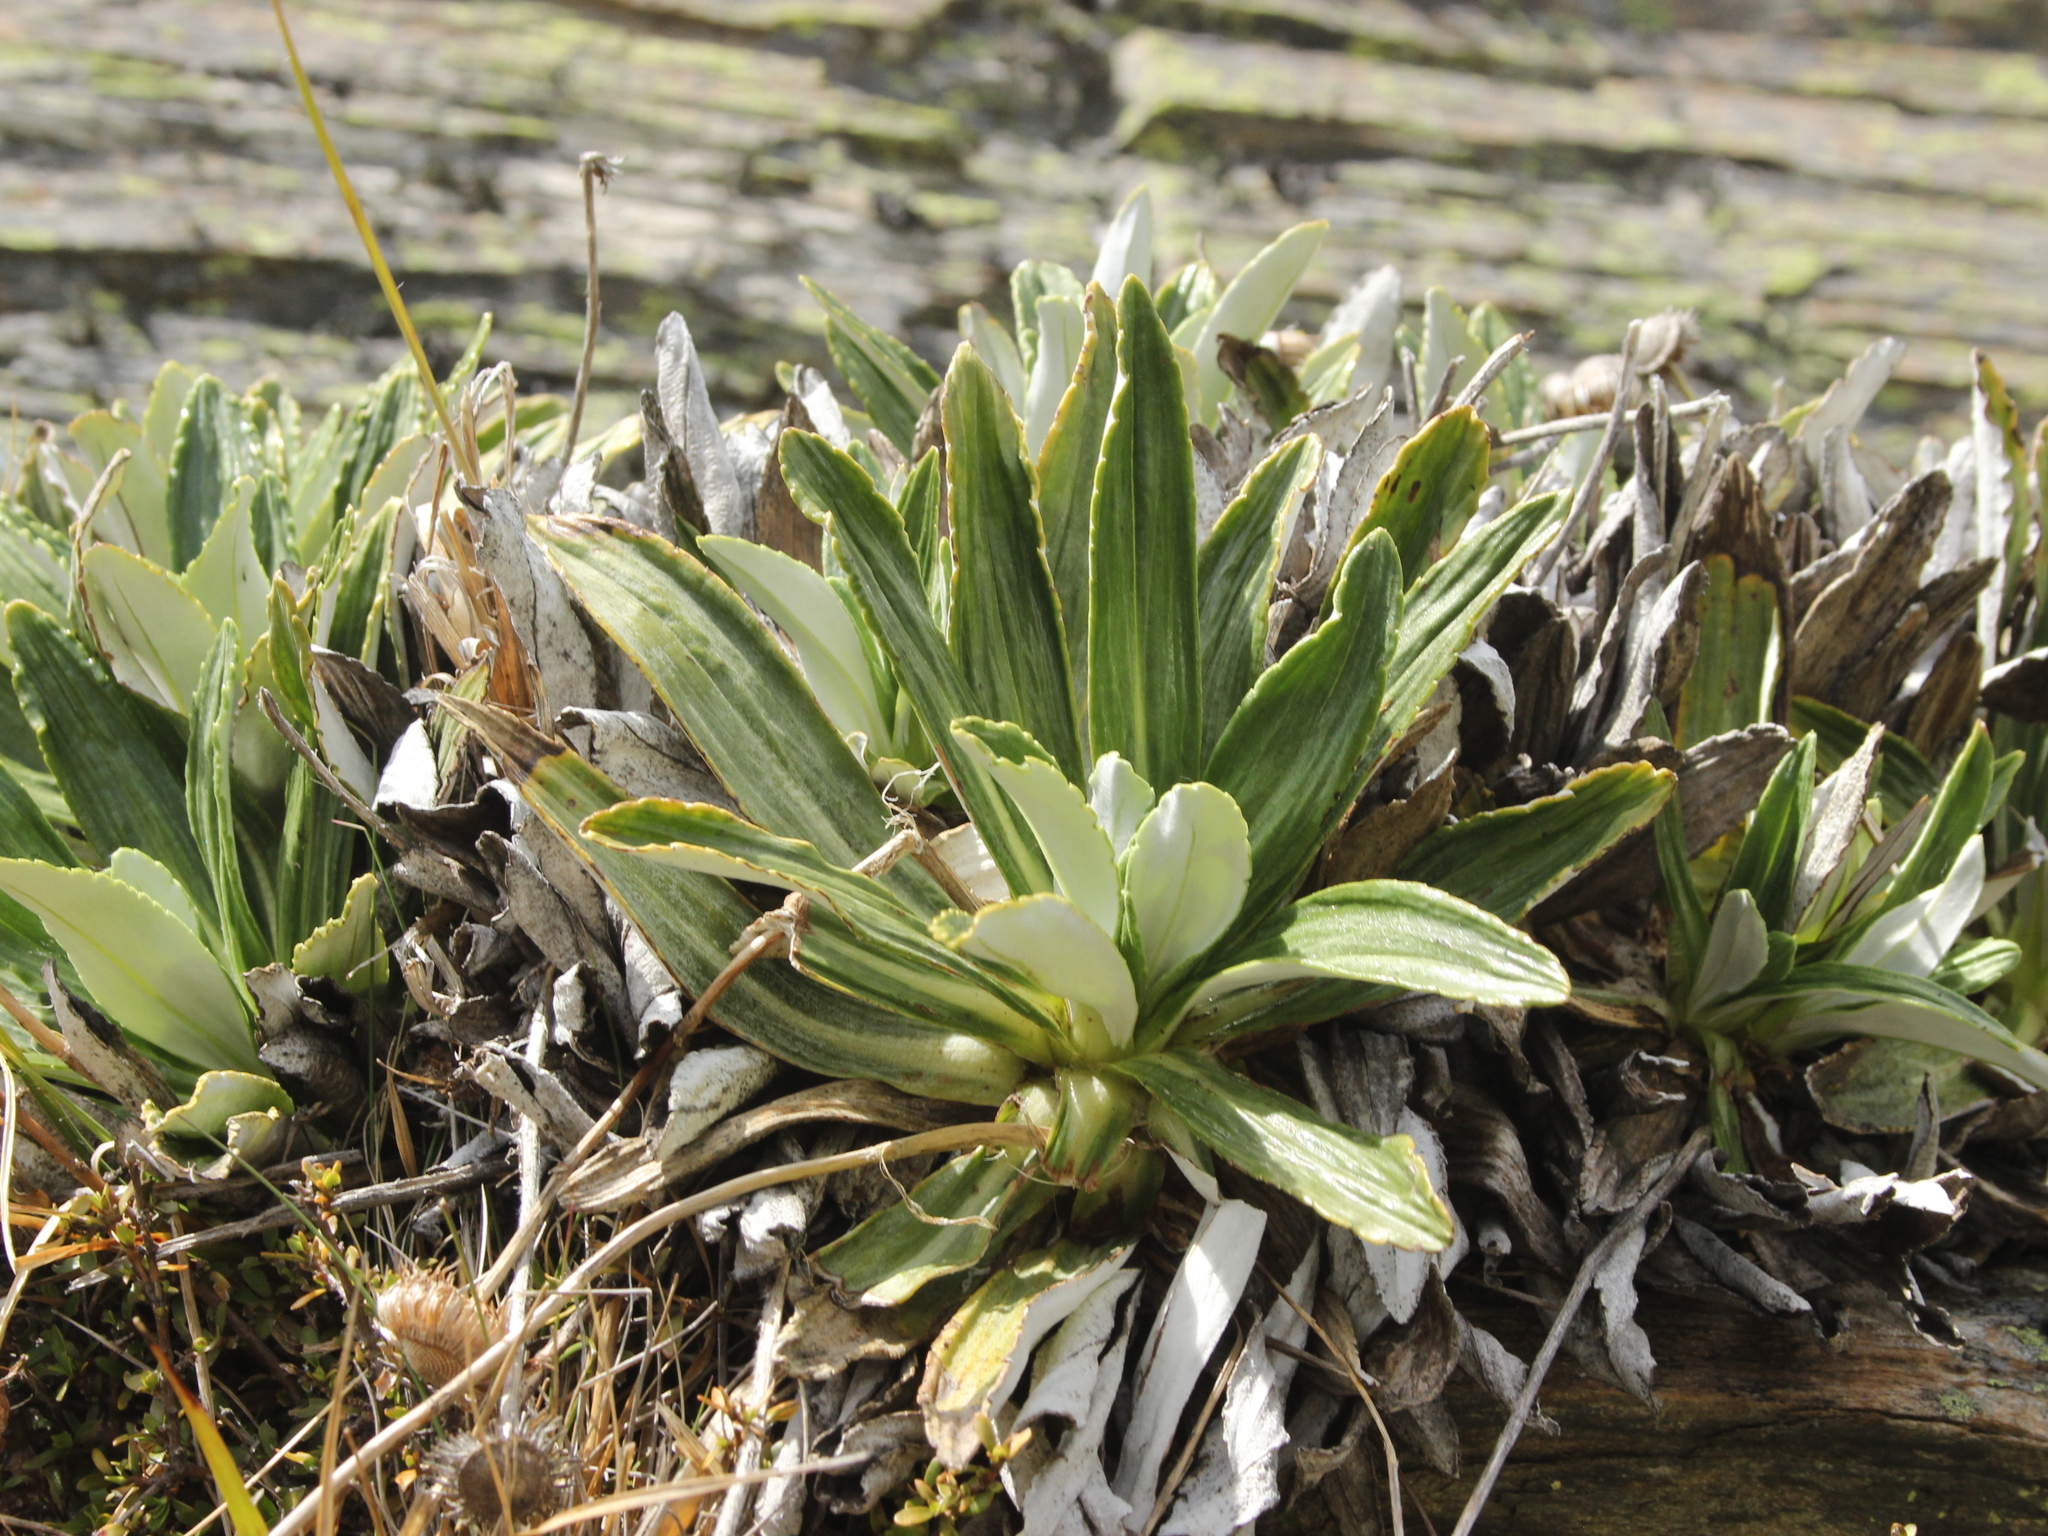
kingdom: Plantae
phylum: Tracheophyta
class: Magnoliopsida
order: Asterales
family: Asteraceae
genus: Celmisia
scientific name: Celmisia densiflora
